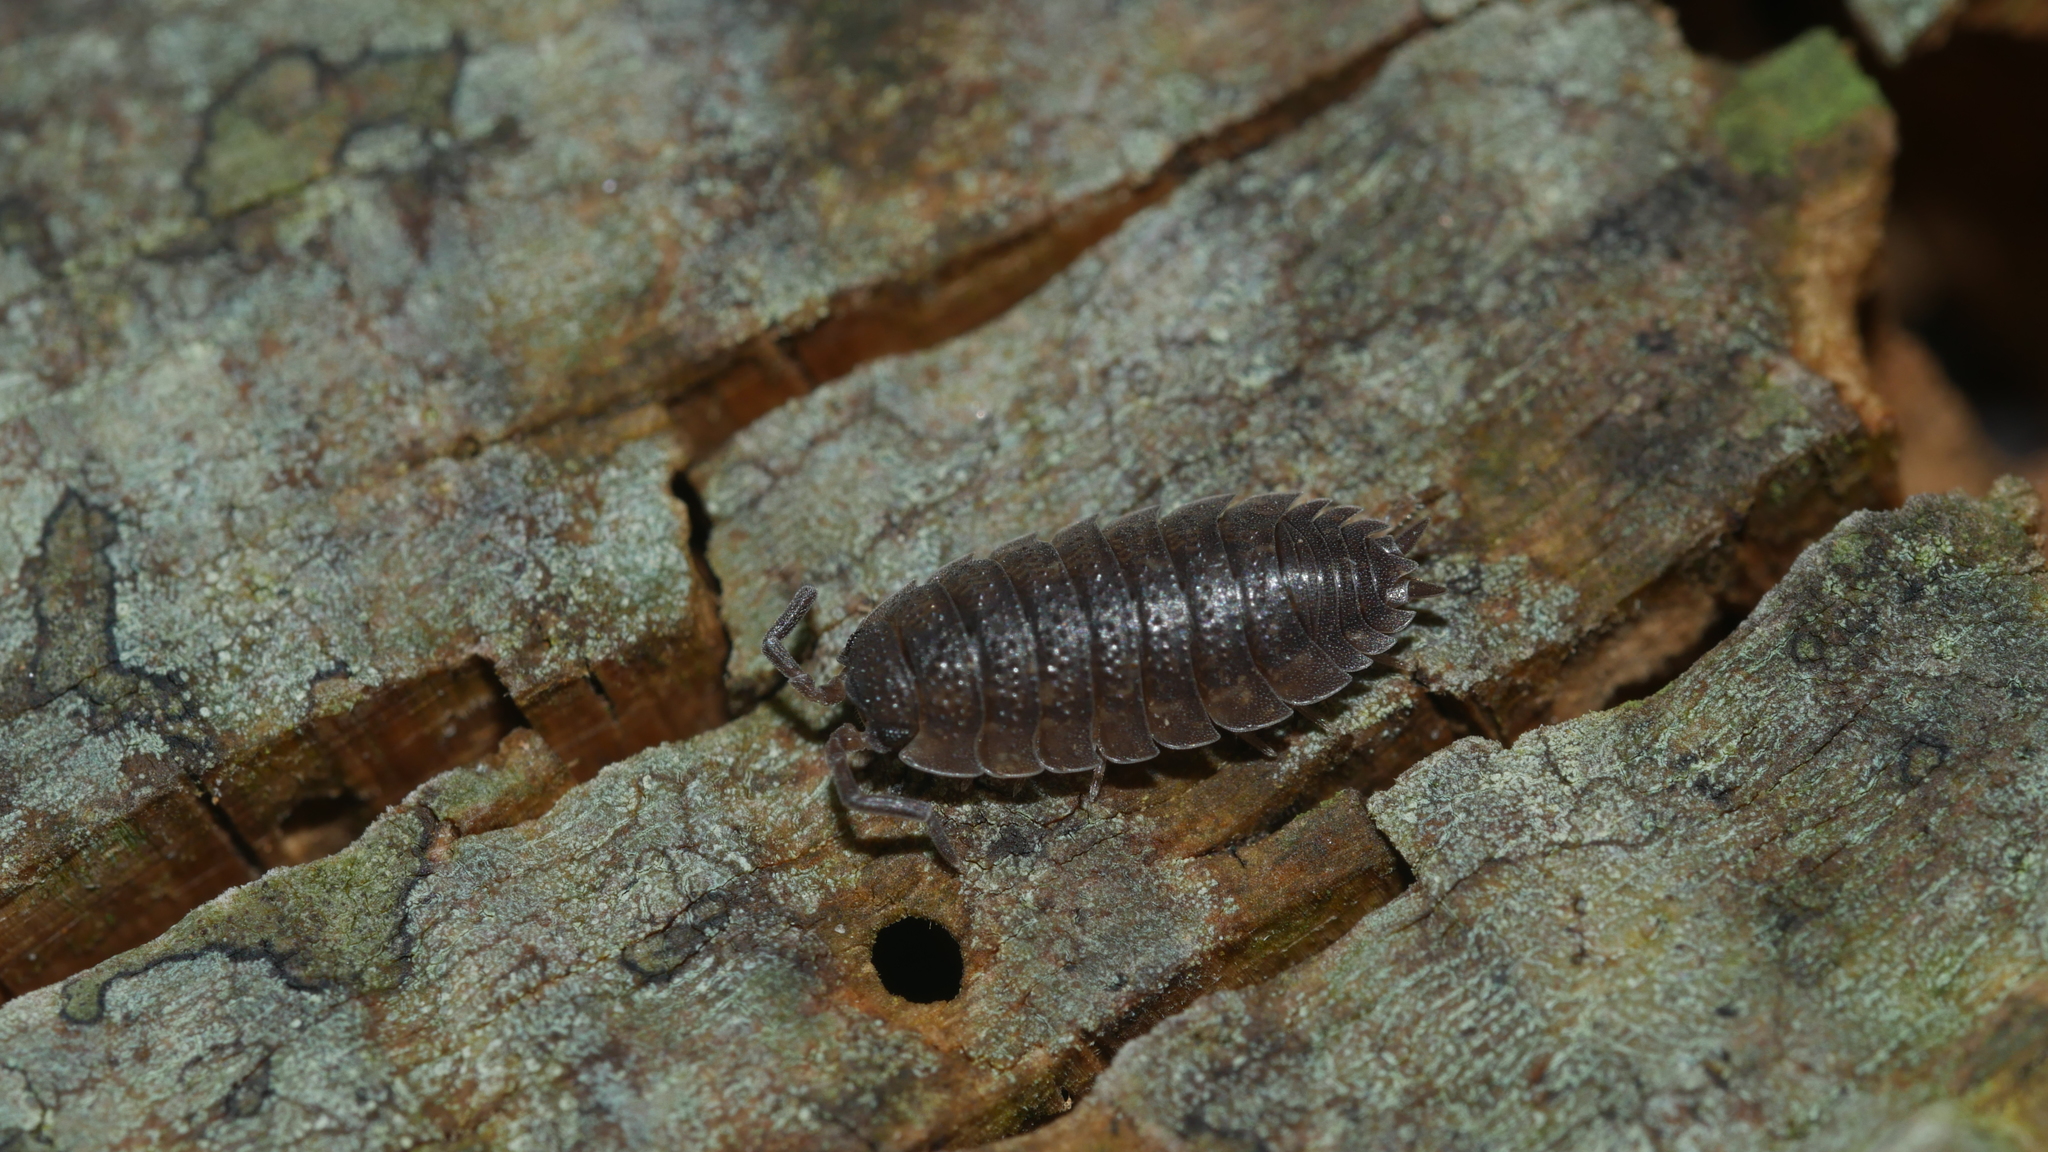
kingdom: Animalia
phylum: Arthropoda
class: Malacostraca
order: Isopoda
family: Porcellionidae
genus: Porcellio
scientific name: Porcellio scaber
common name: Common rough woodlouse
